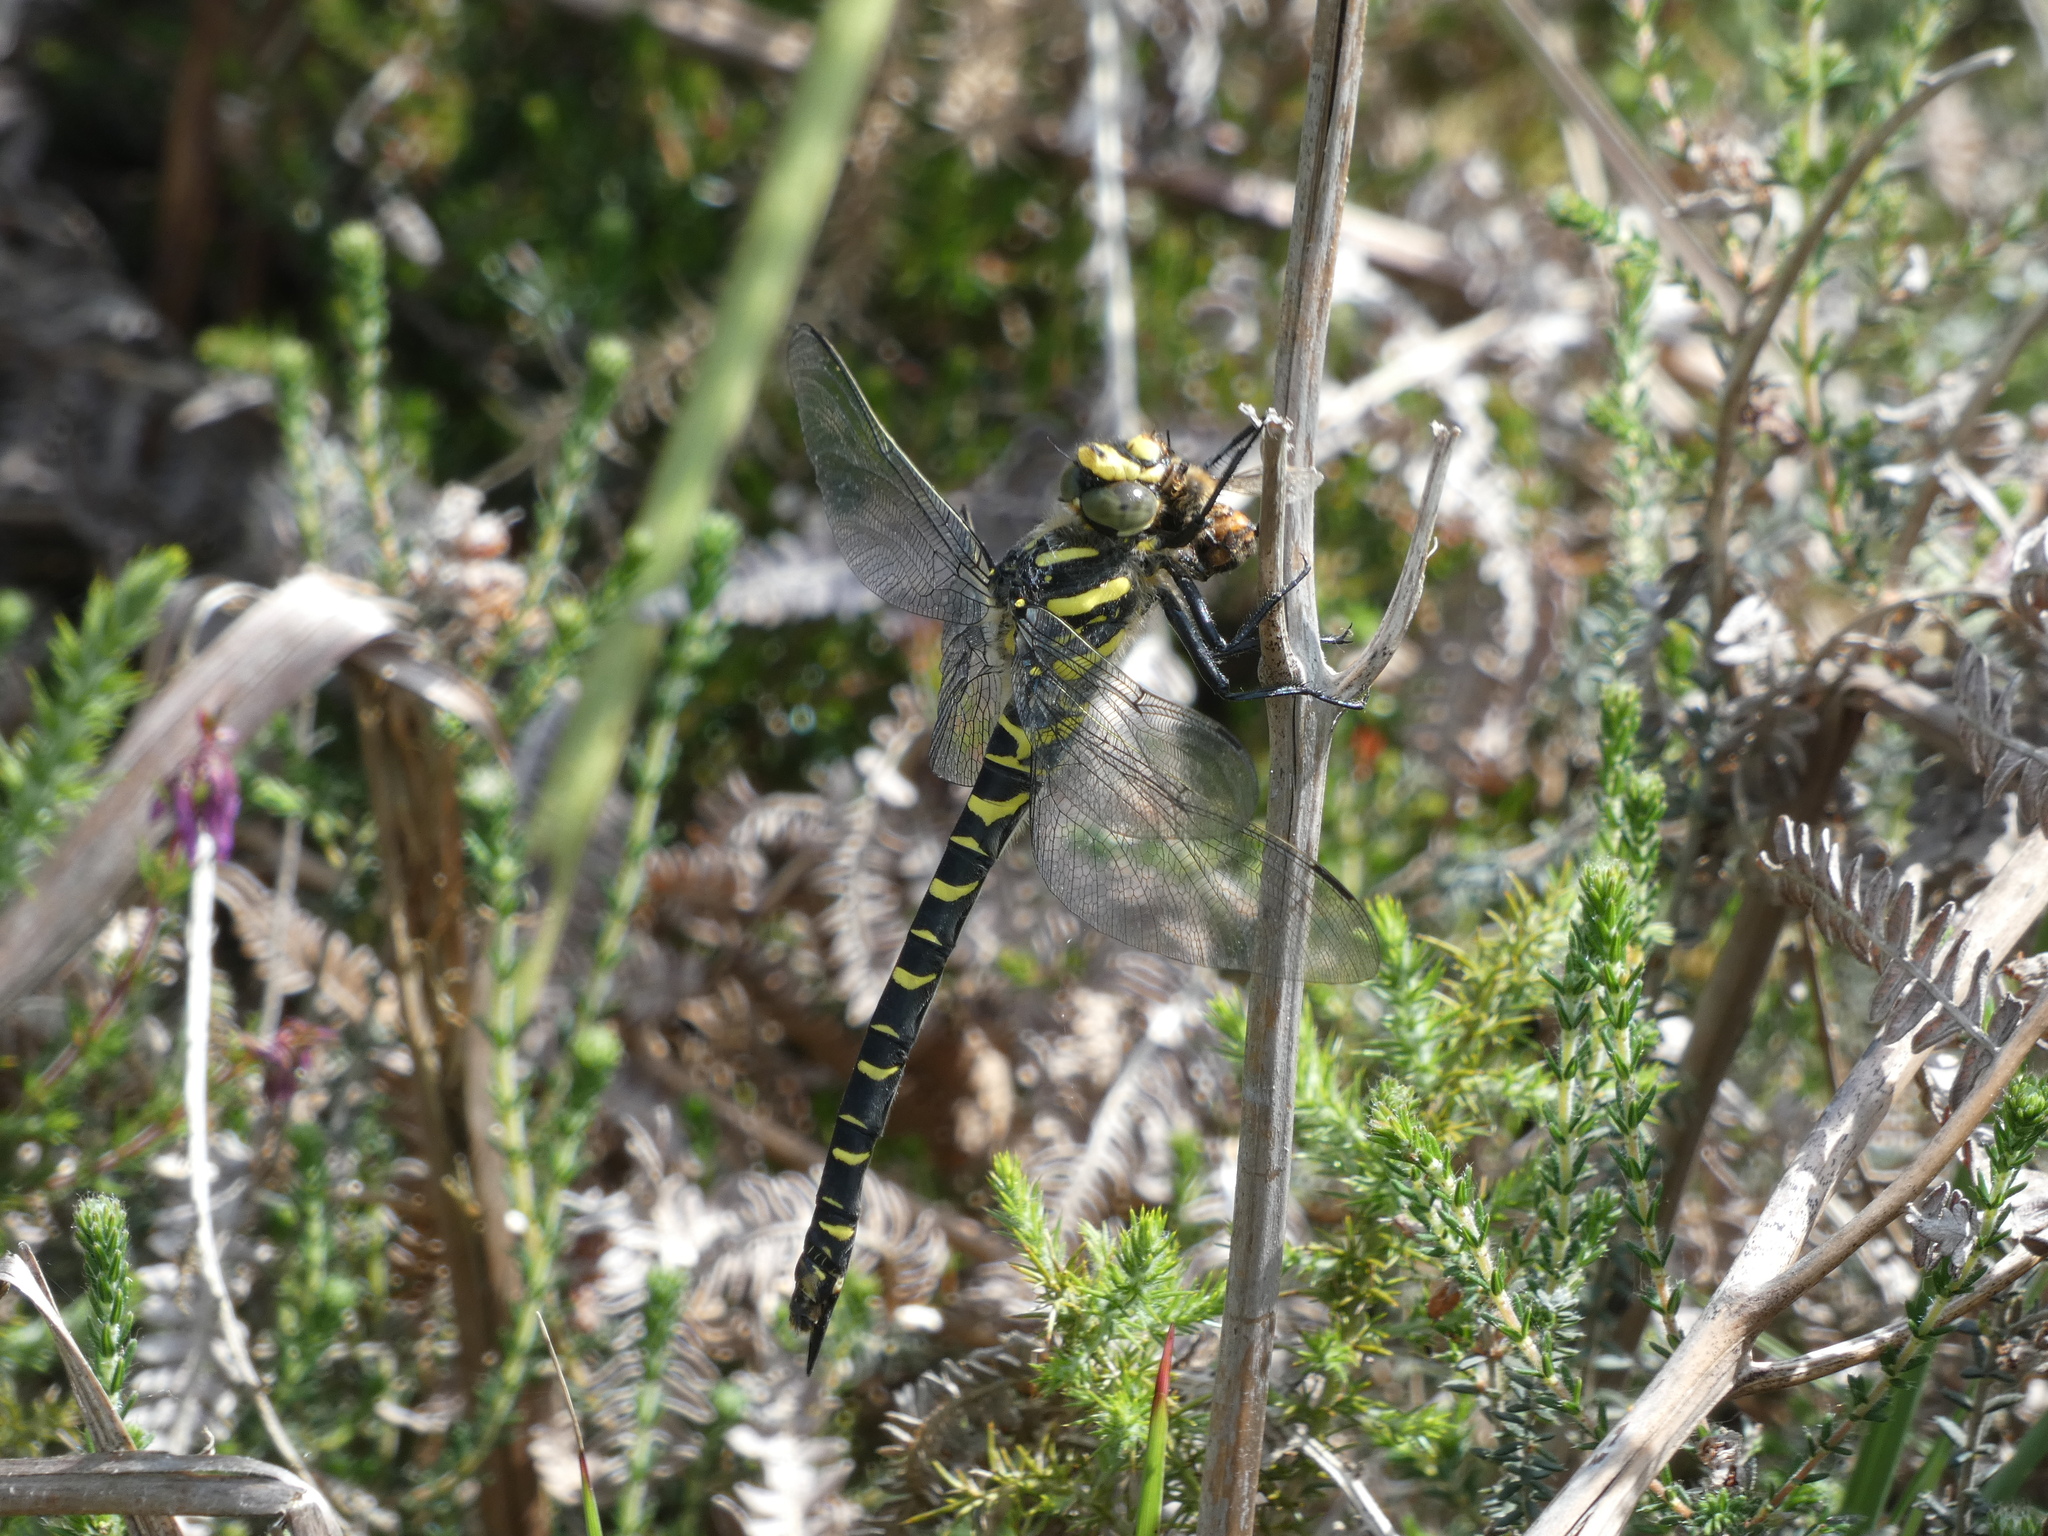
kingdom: Animalia
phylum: Arthropoda
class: Insecta
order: Odonata
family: Cordulegastridae
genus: Cordulegaster
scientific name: Cordulegaster boltonii
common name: Golden-ringed dragonfly
